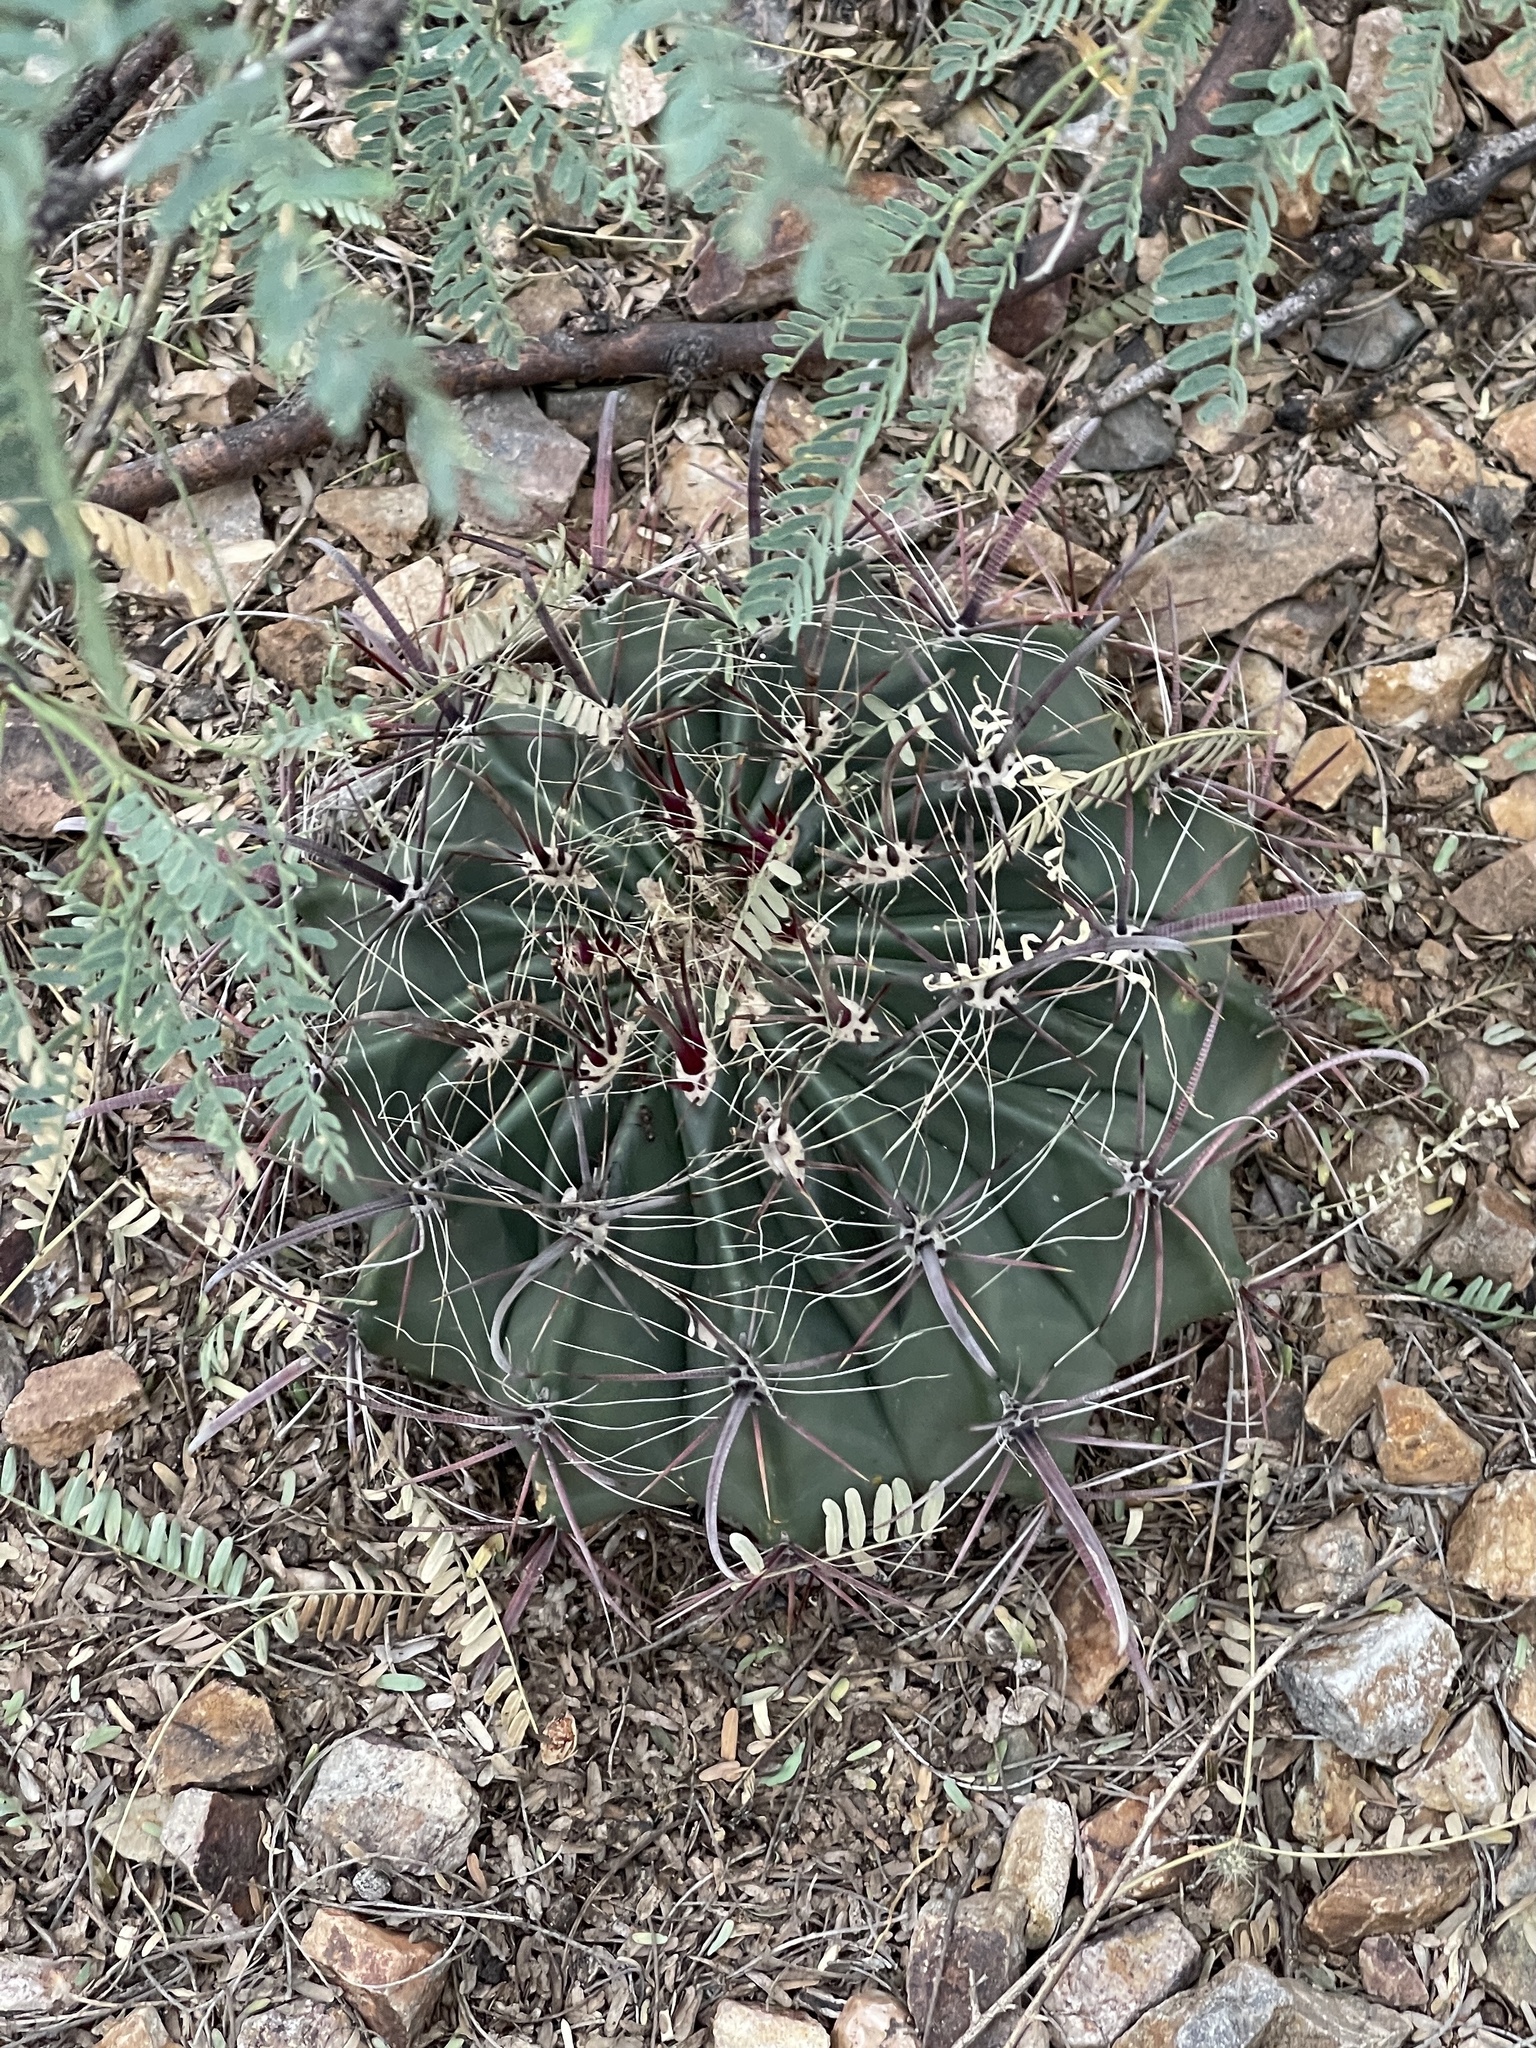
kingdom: Plantae
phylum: Tracheophyta
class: Magnoliopsida
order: Caryophyllales
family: Cactaceae
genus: Ferocactus
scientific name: Ferocactus wislizeni
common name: Candy barrel cactus
